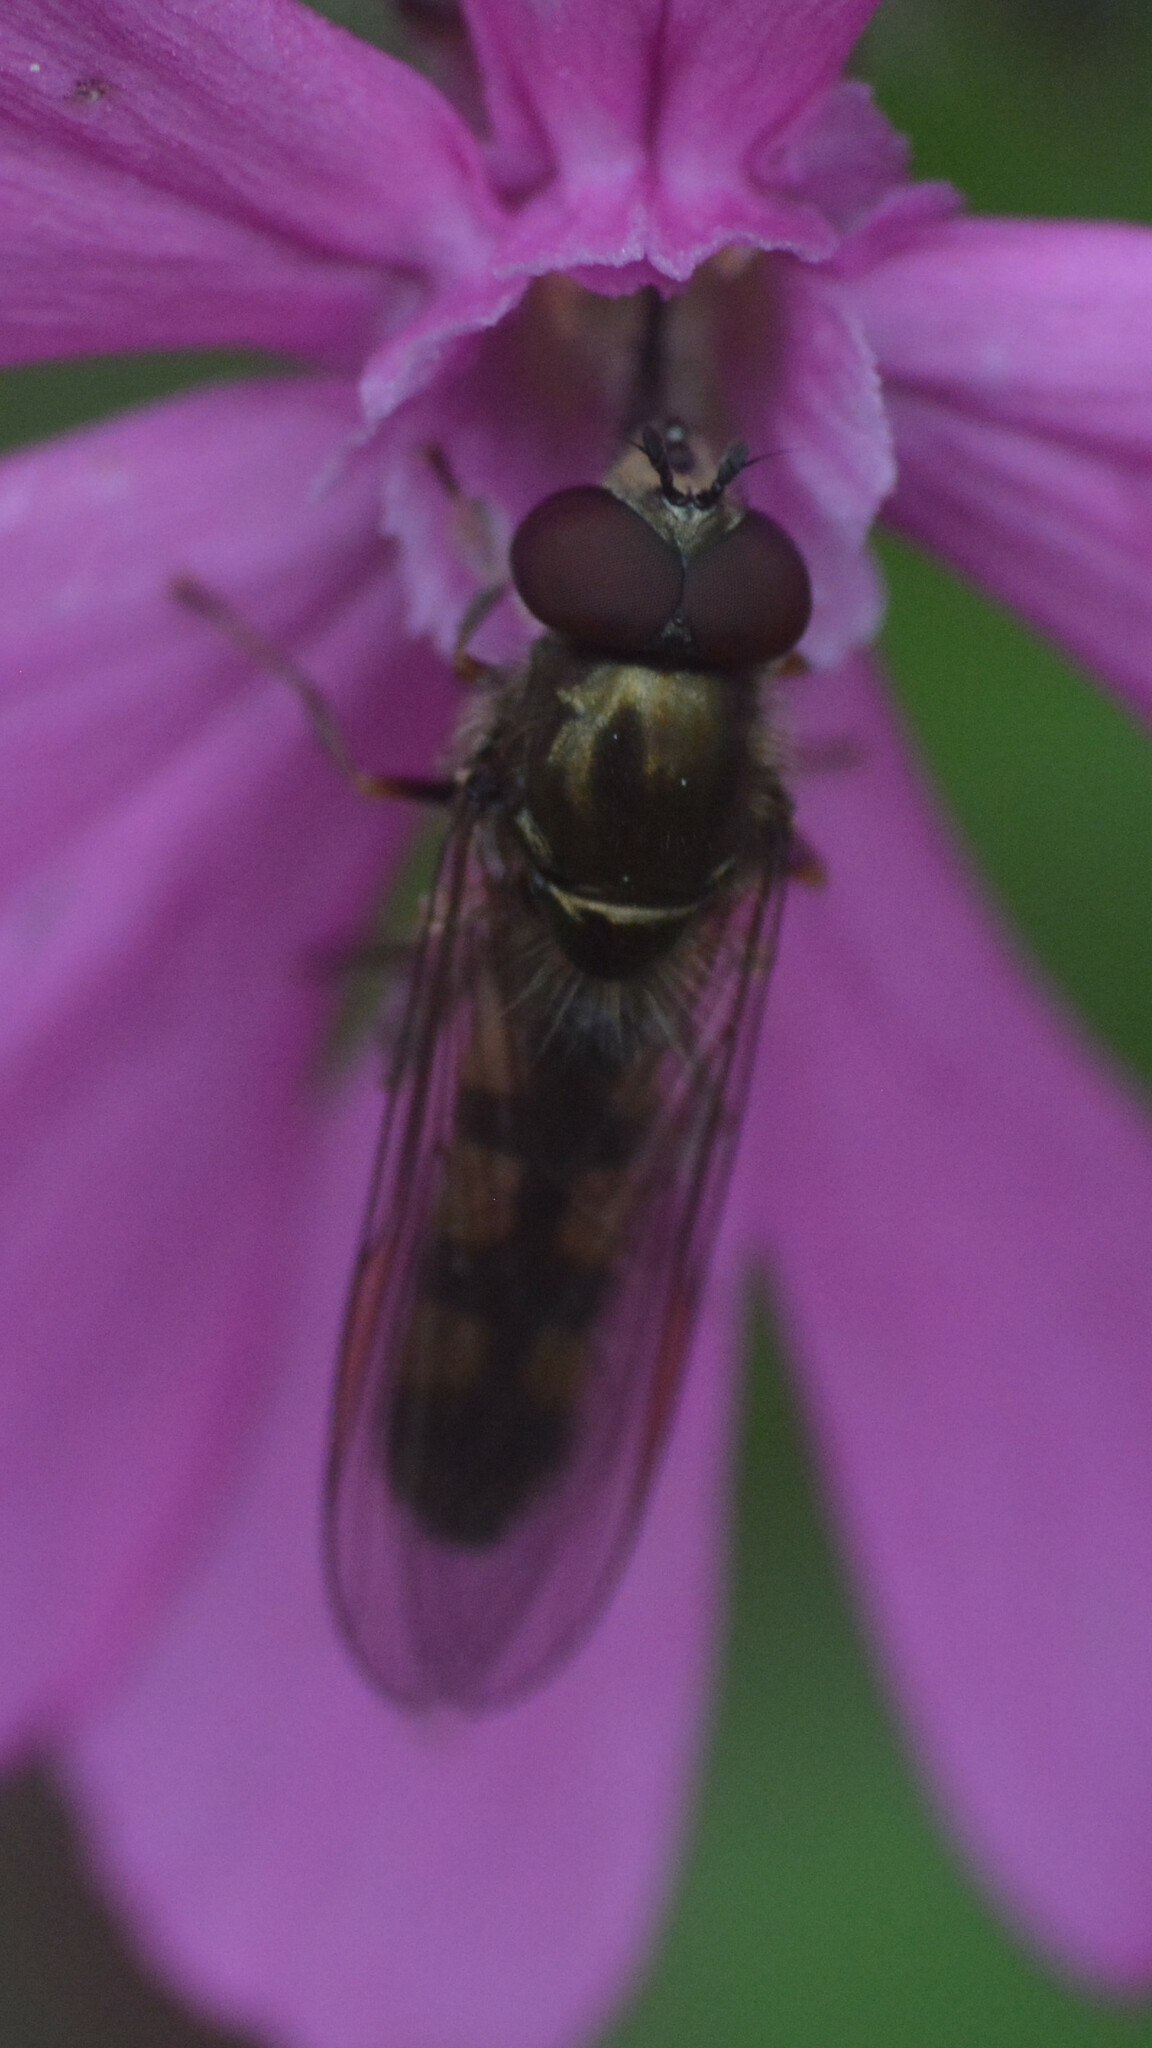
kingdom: Animalia
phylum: Arthropoda
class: Insecta
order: Diptera
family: Syrphidae
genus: Platycheirus
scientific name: Platycheirus ciliger
